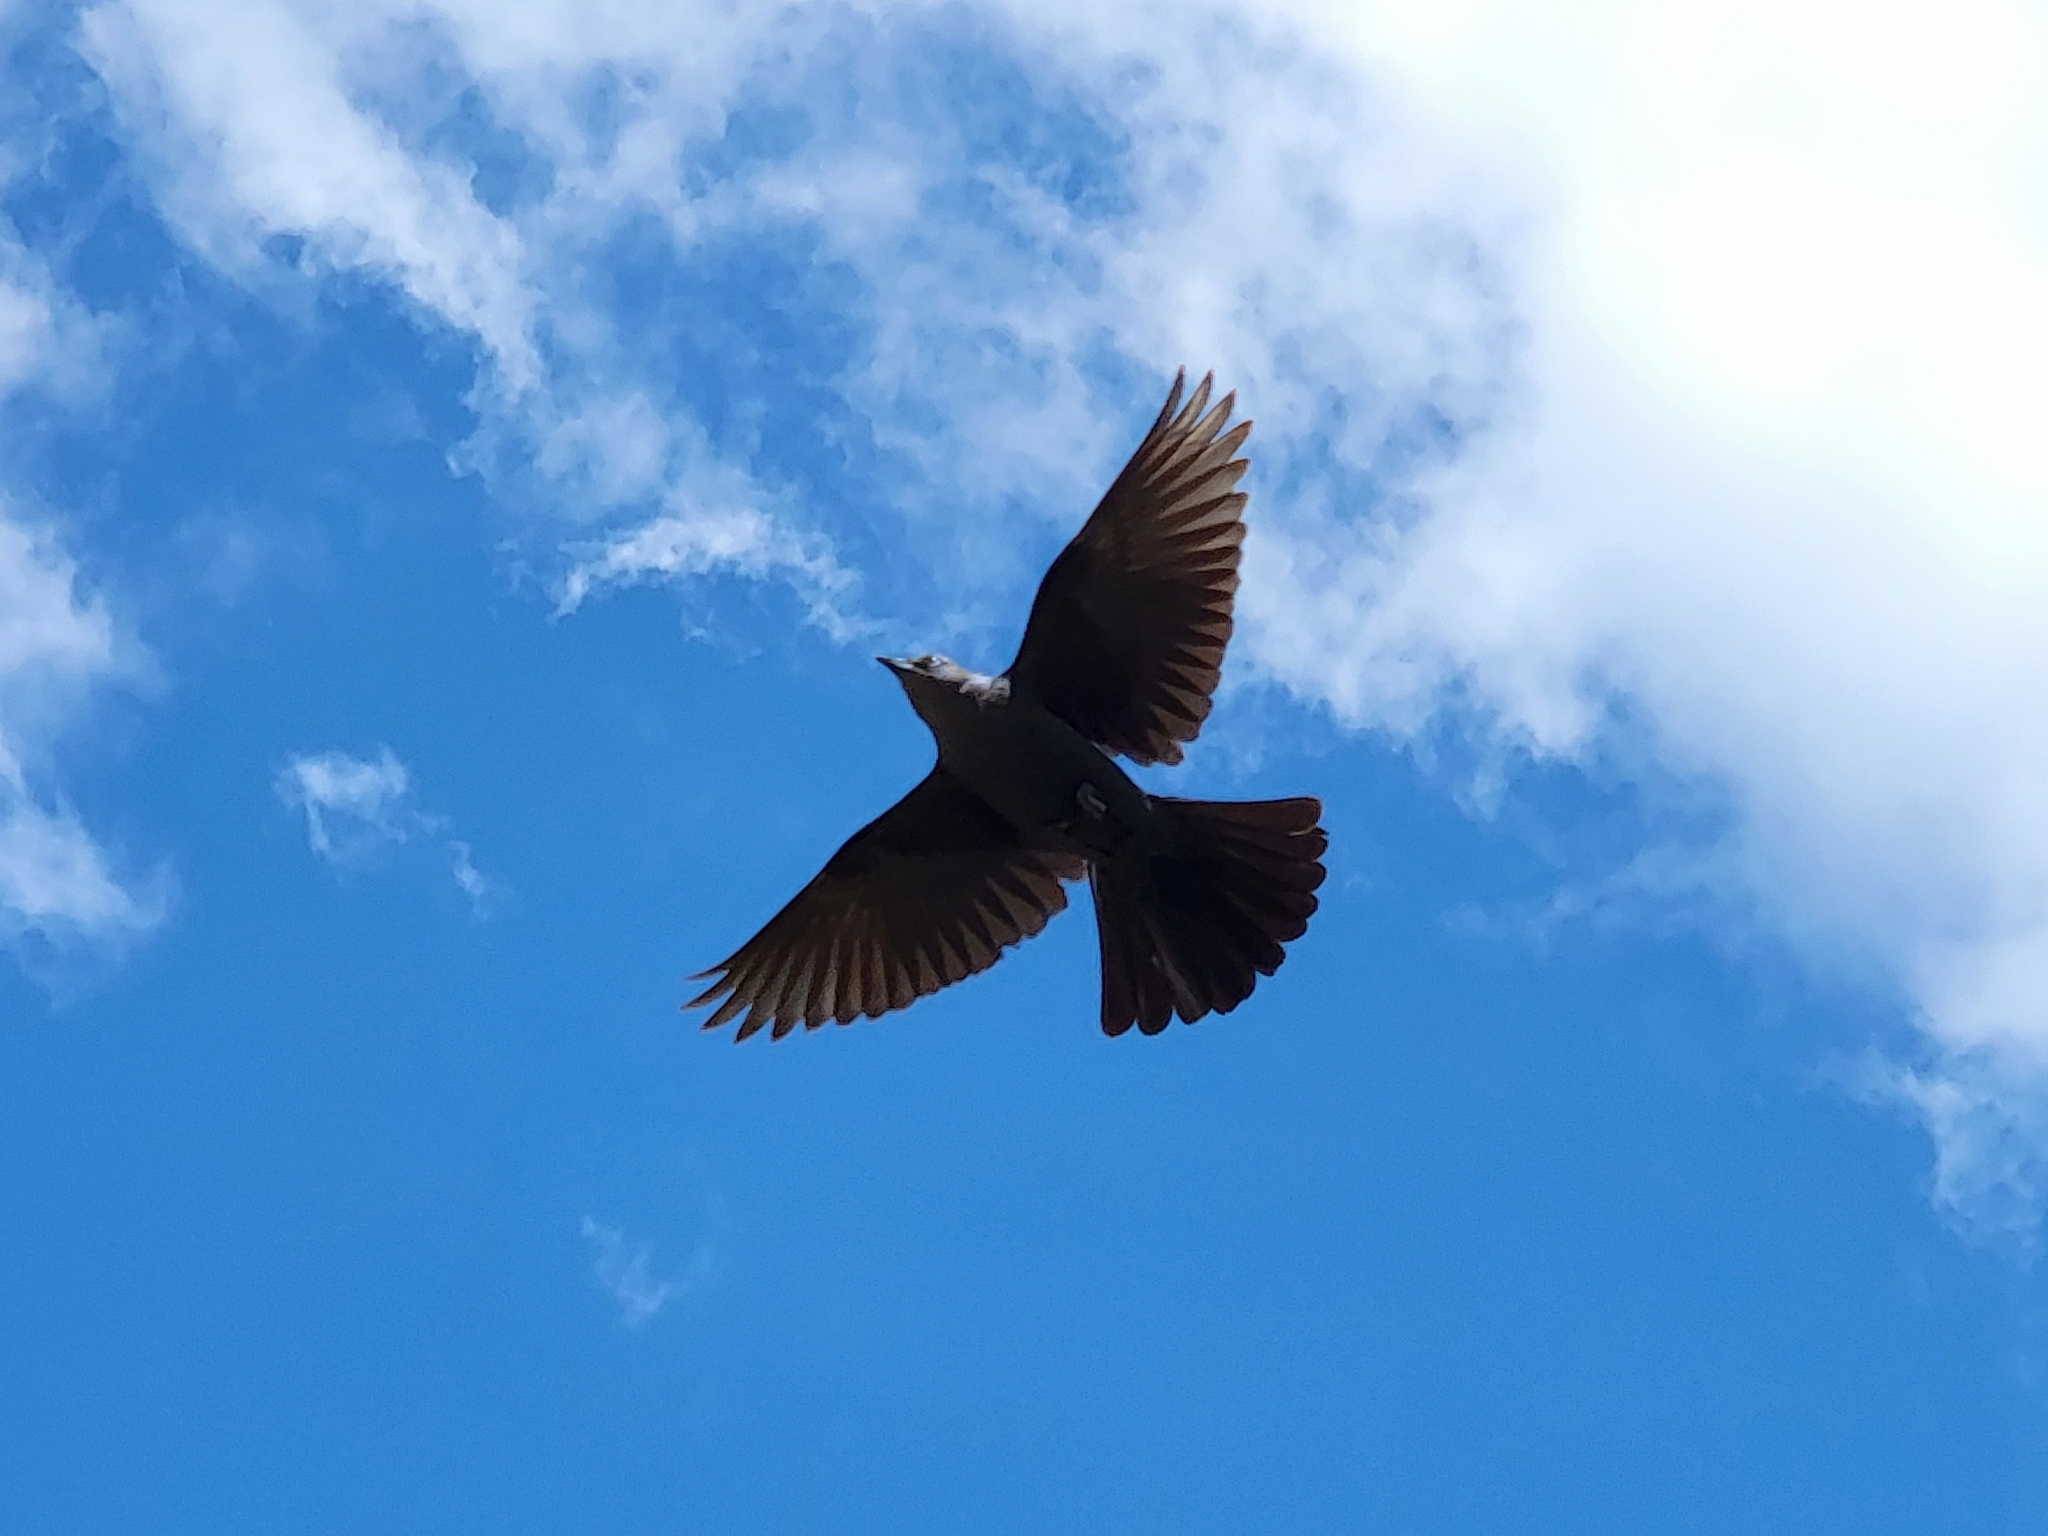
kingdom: Animalia
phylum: Chordata
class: Aves
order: Passeriformes
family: Icteridae
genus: Euphagus
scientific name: Euphagus cyanocephalus
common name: Brewer's blackbird
